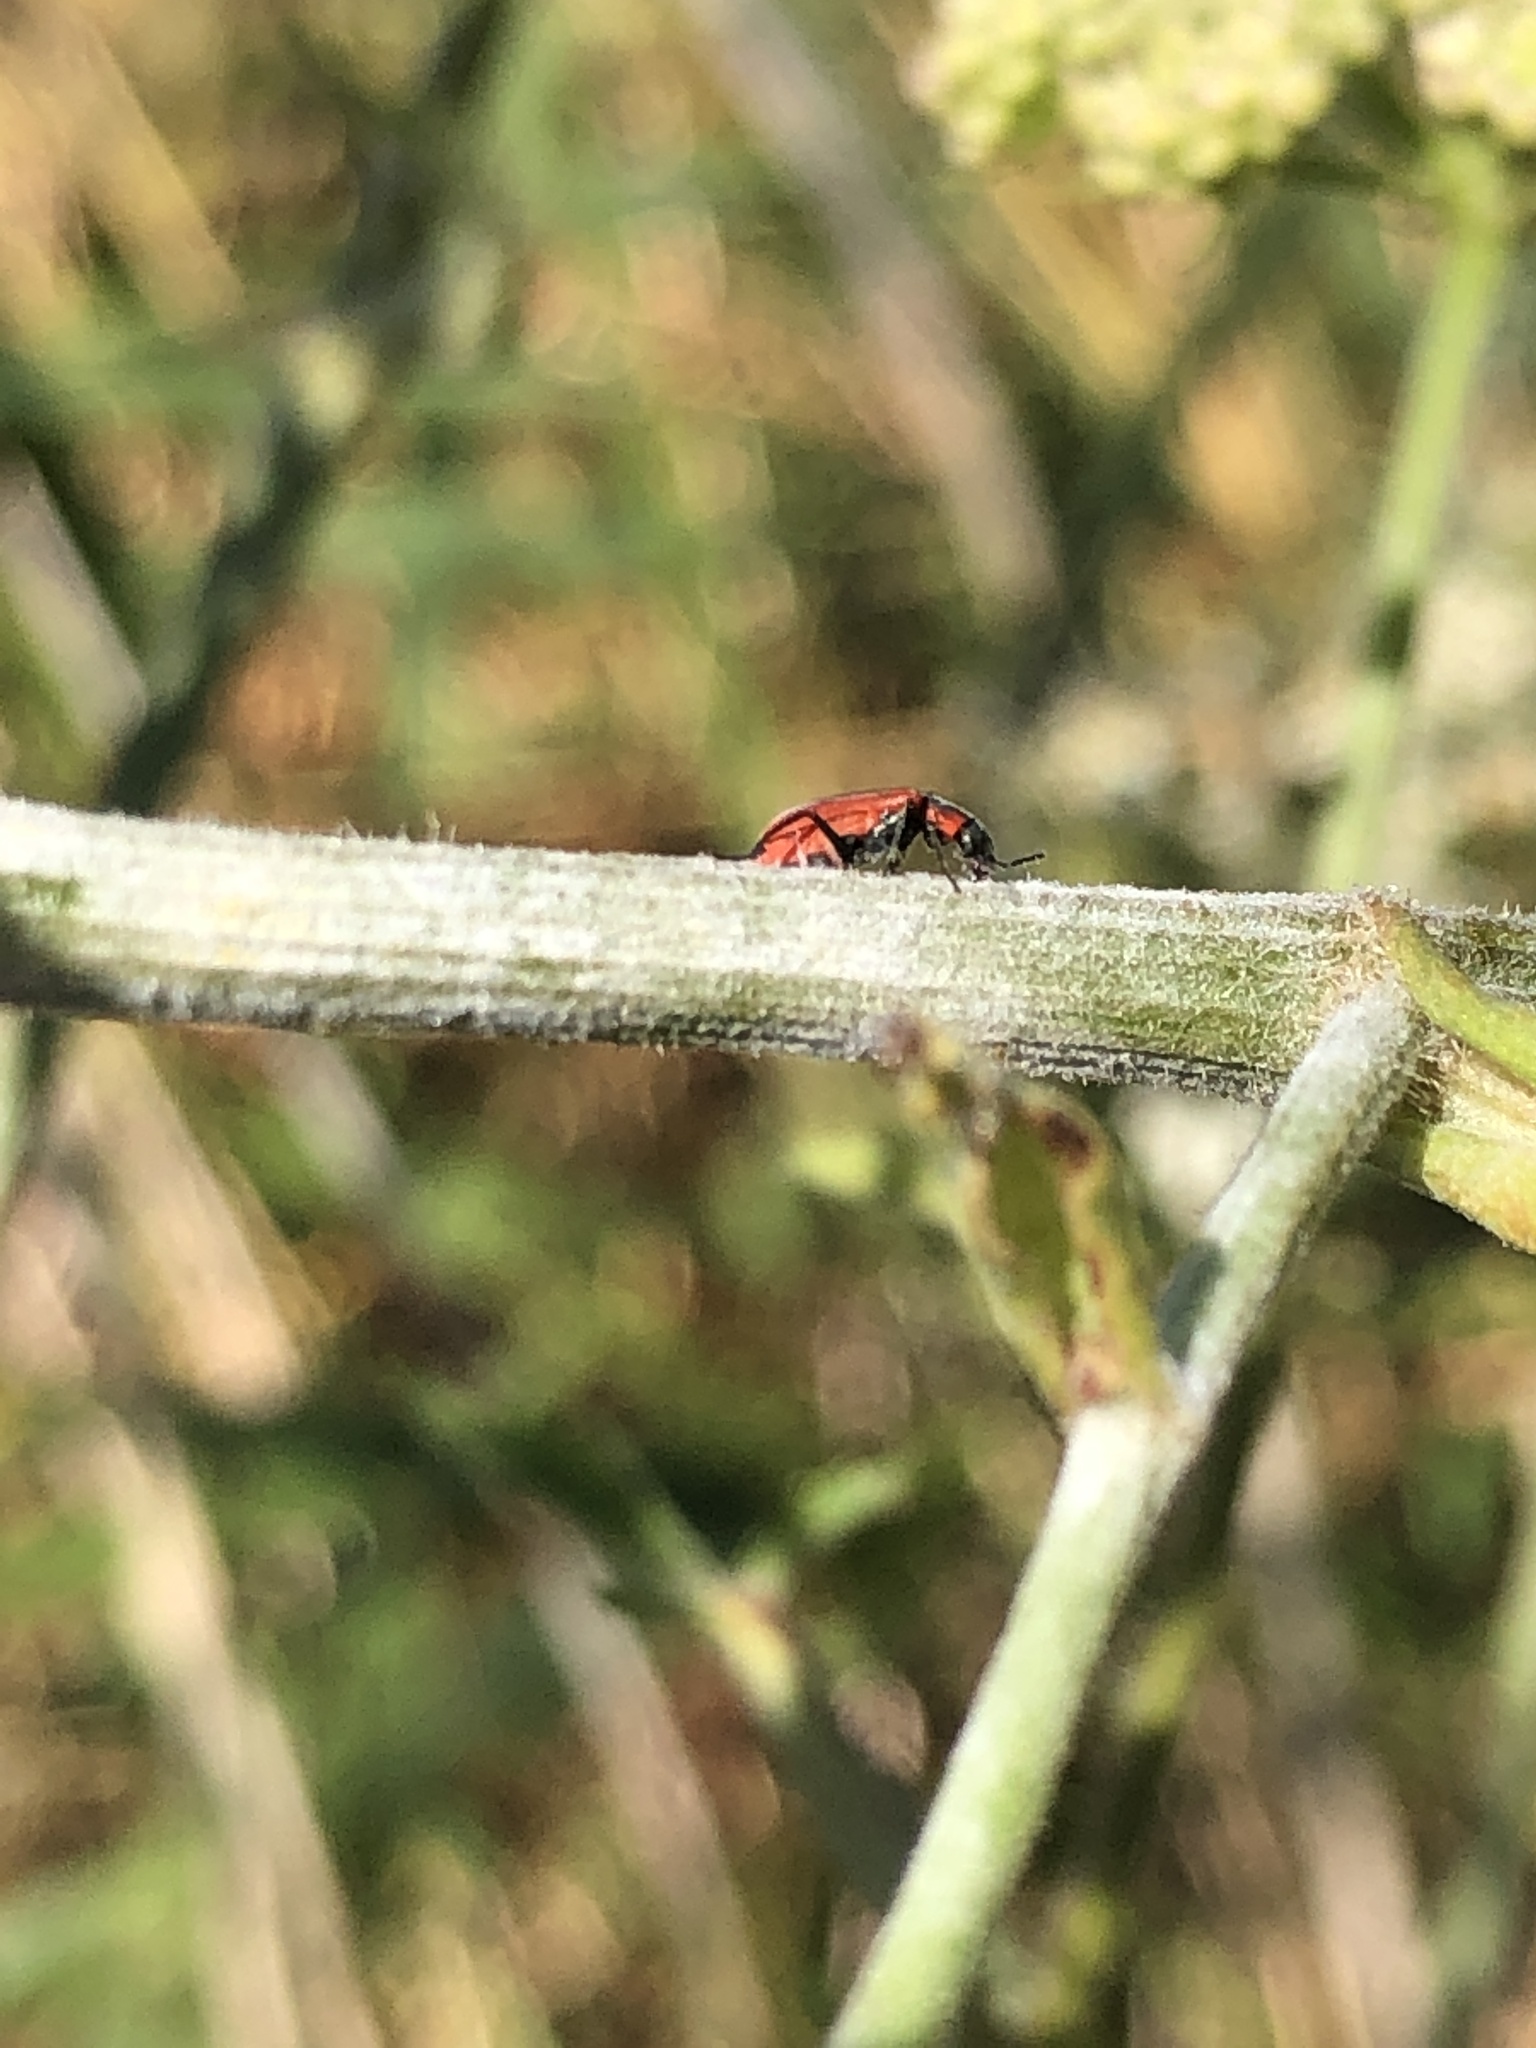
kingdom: Animalia
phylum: Arthropoda
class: Insecta
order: Coleoptera
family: Melyridae
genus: Anthocomus
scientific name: Anthocomus rufus
